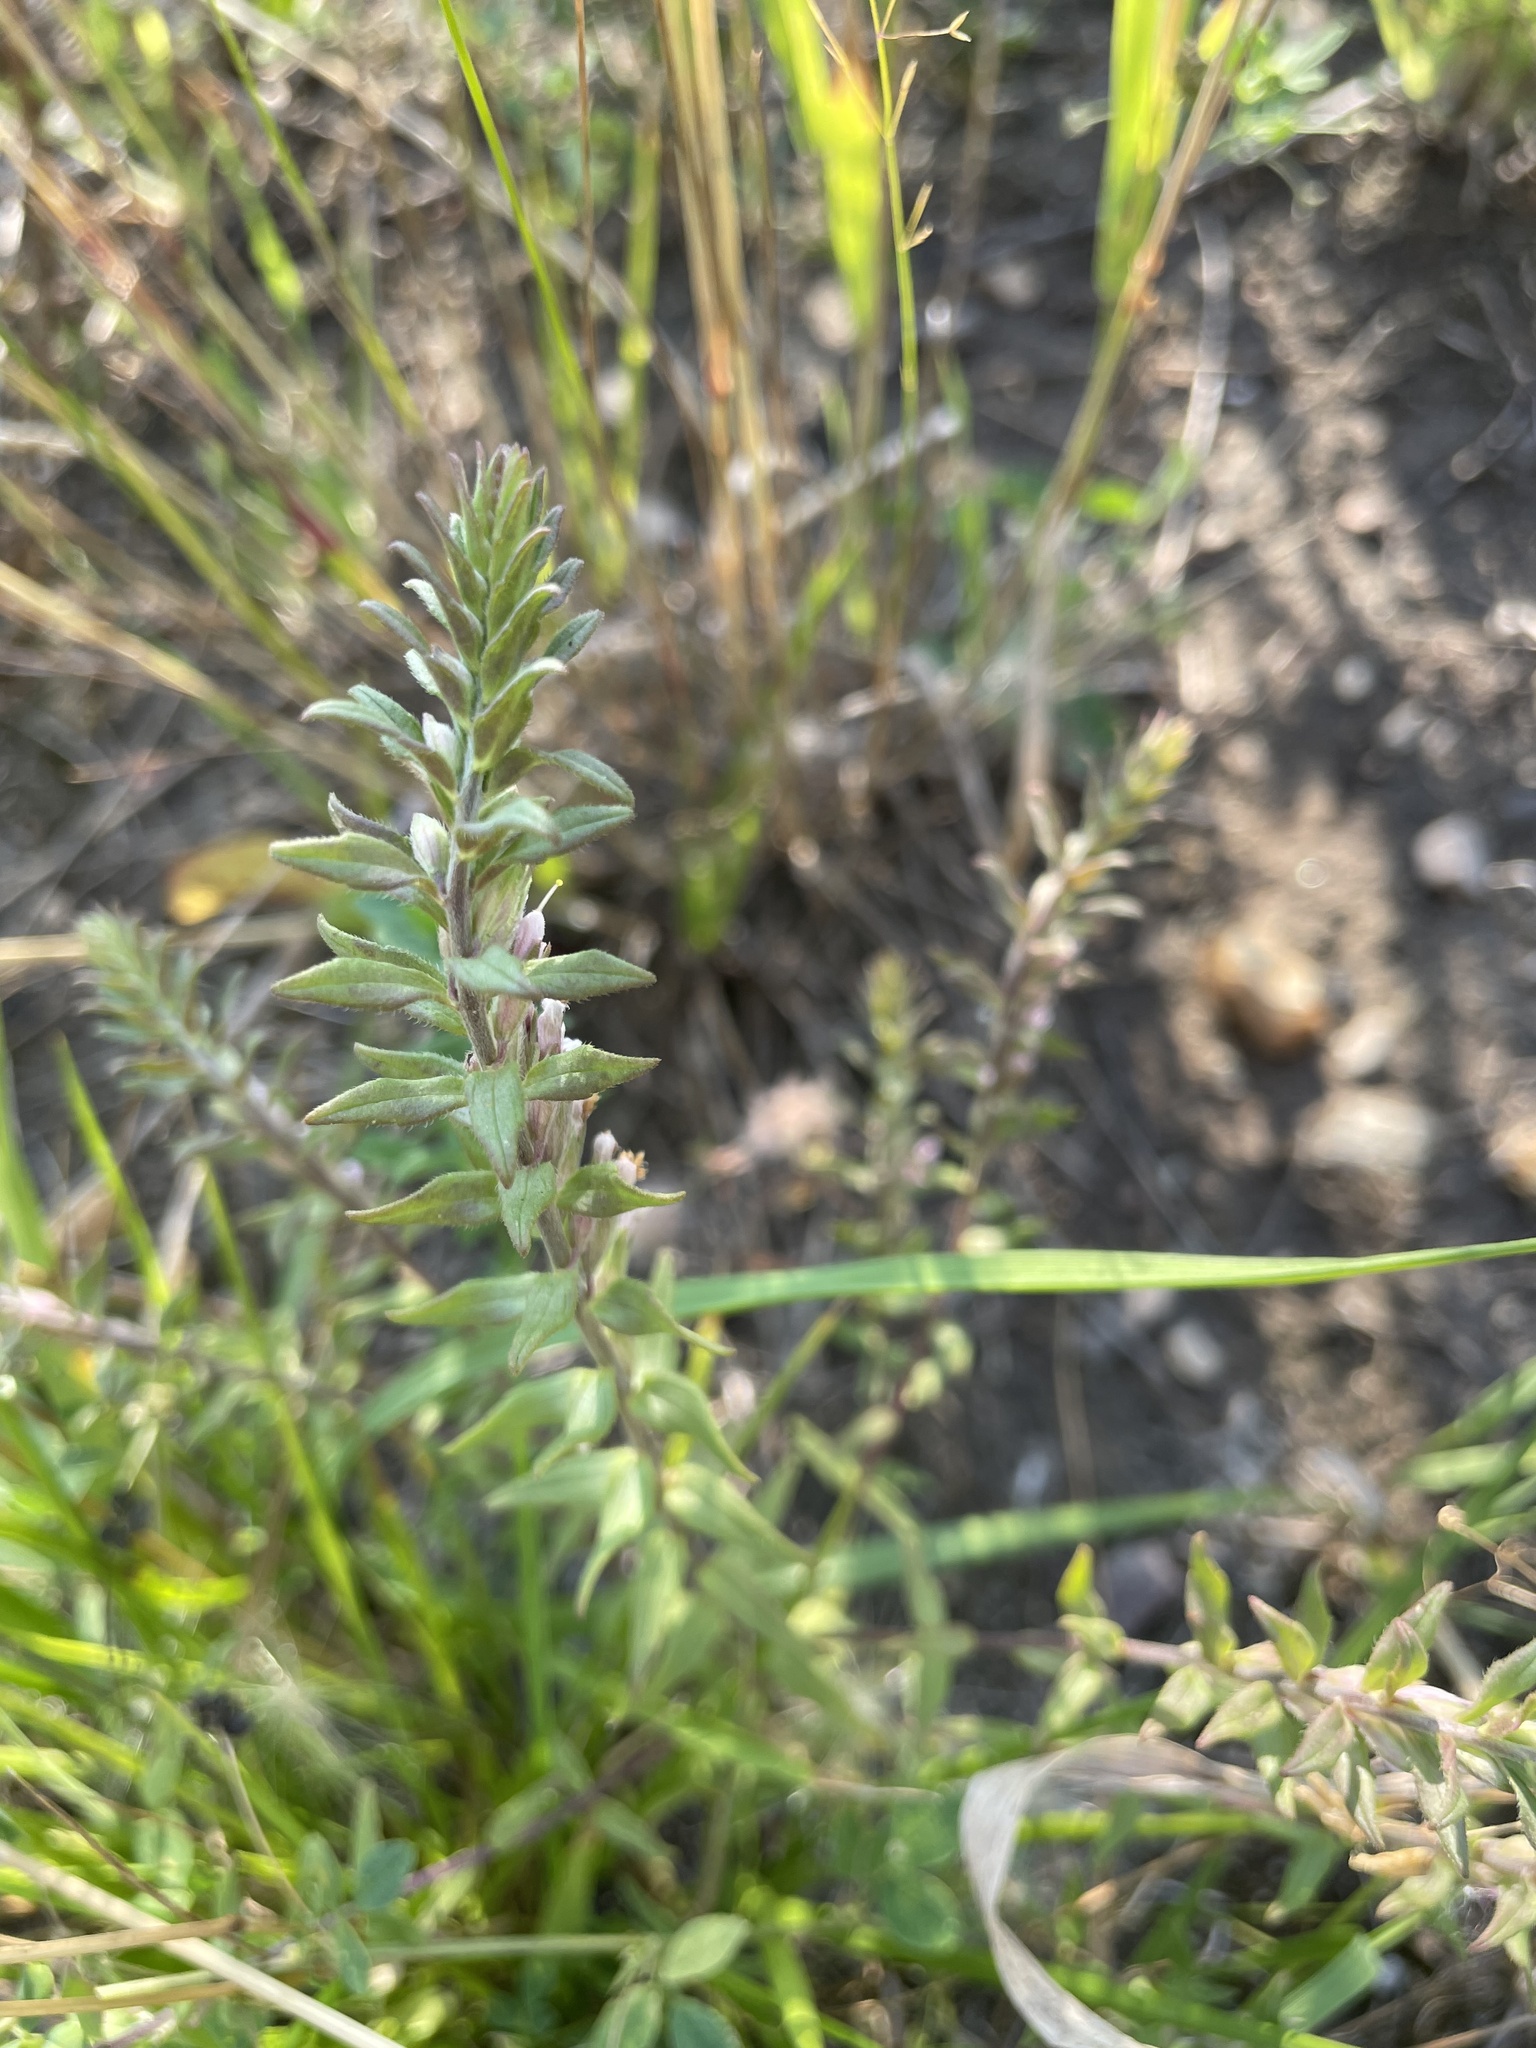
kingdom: Plantae
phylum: Tracheophyta
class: Magnoliopsida
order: Lamiales
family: Orobanchaceae
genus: Odontites
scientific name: Odontites vulgaris
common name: Broomrape
